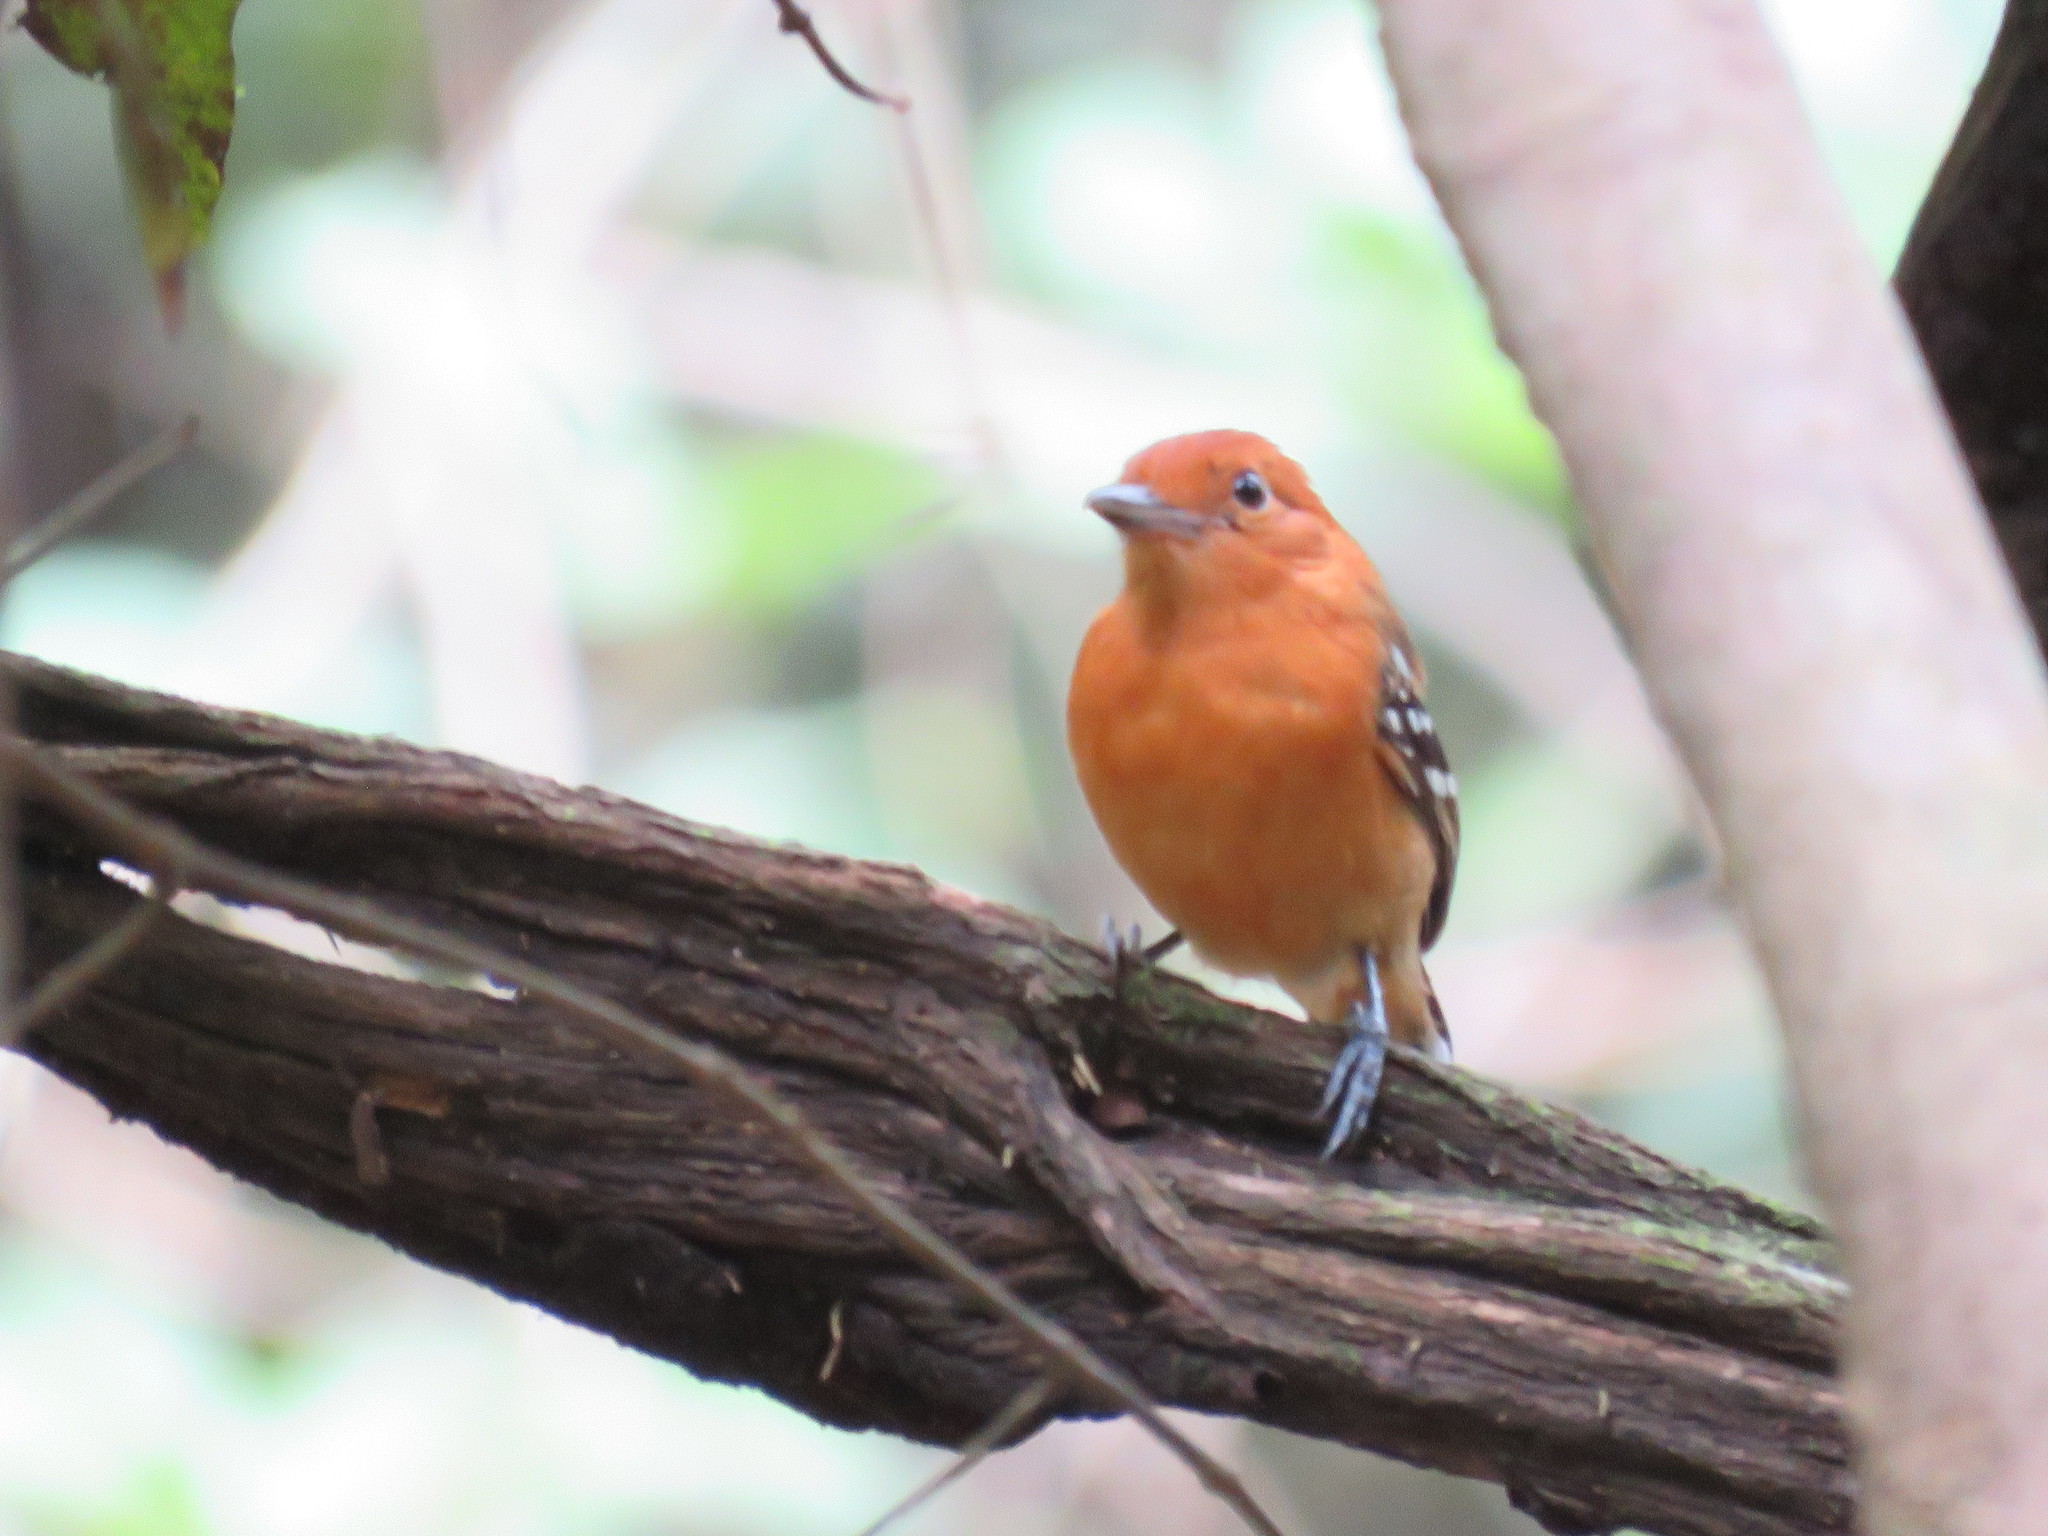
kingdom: Animalia
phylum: Chordata
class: Aves
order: Passeriformes
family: Thamnophilidae
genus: Thamnophilus
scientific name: Thamnophilus amazonicus
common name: Amazonian antshrike
